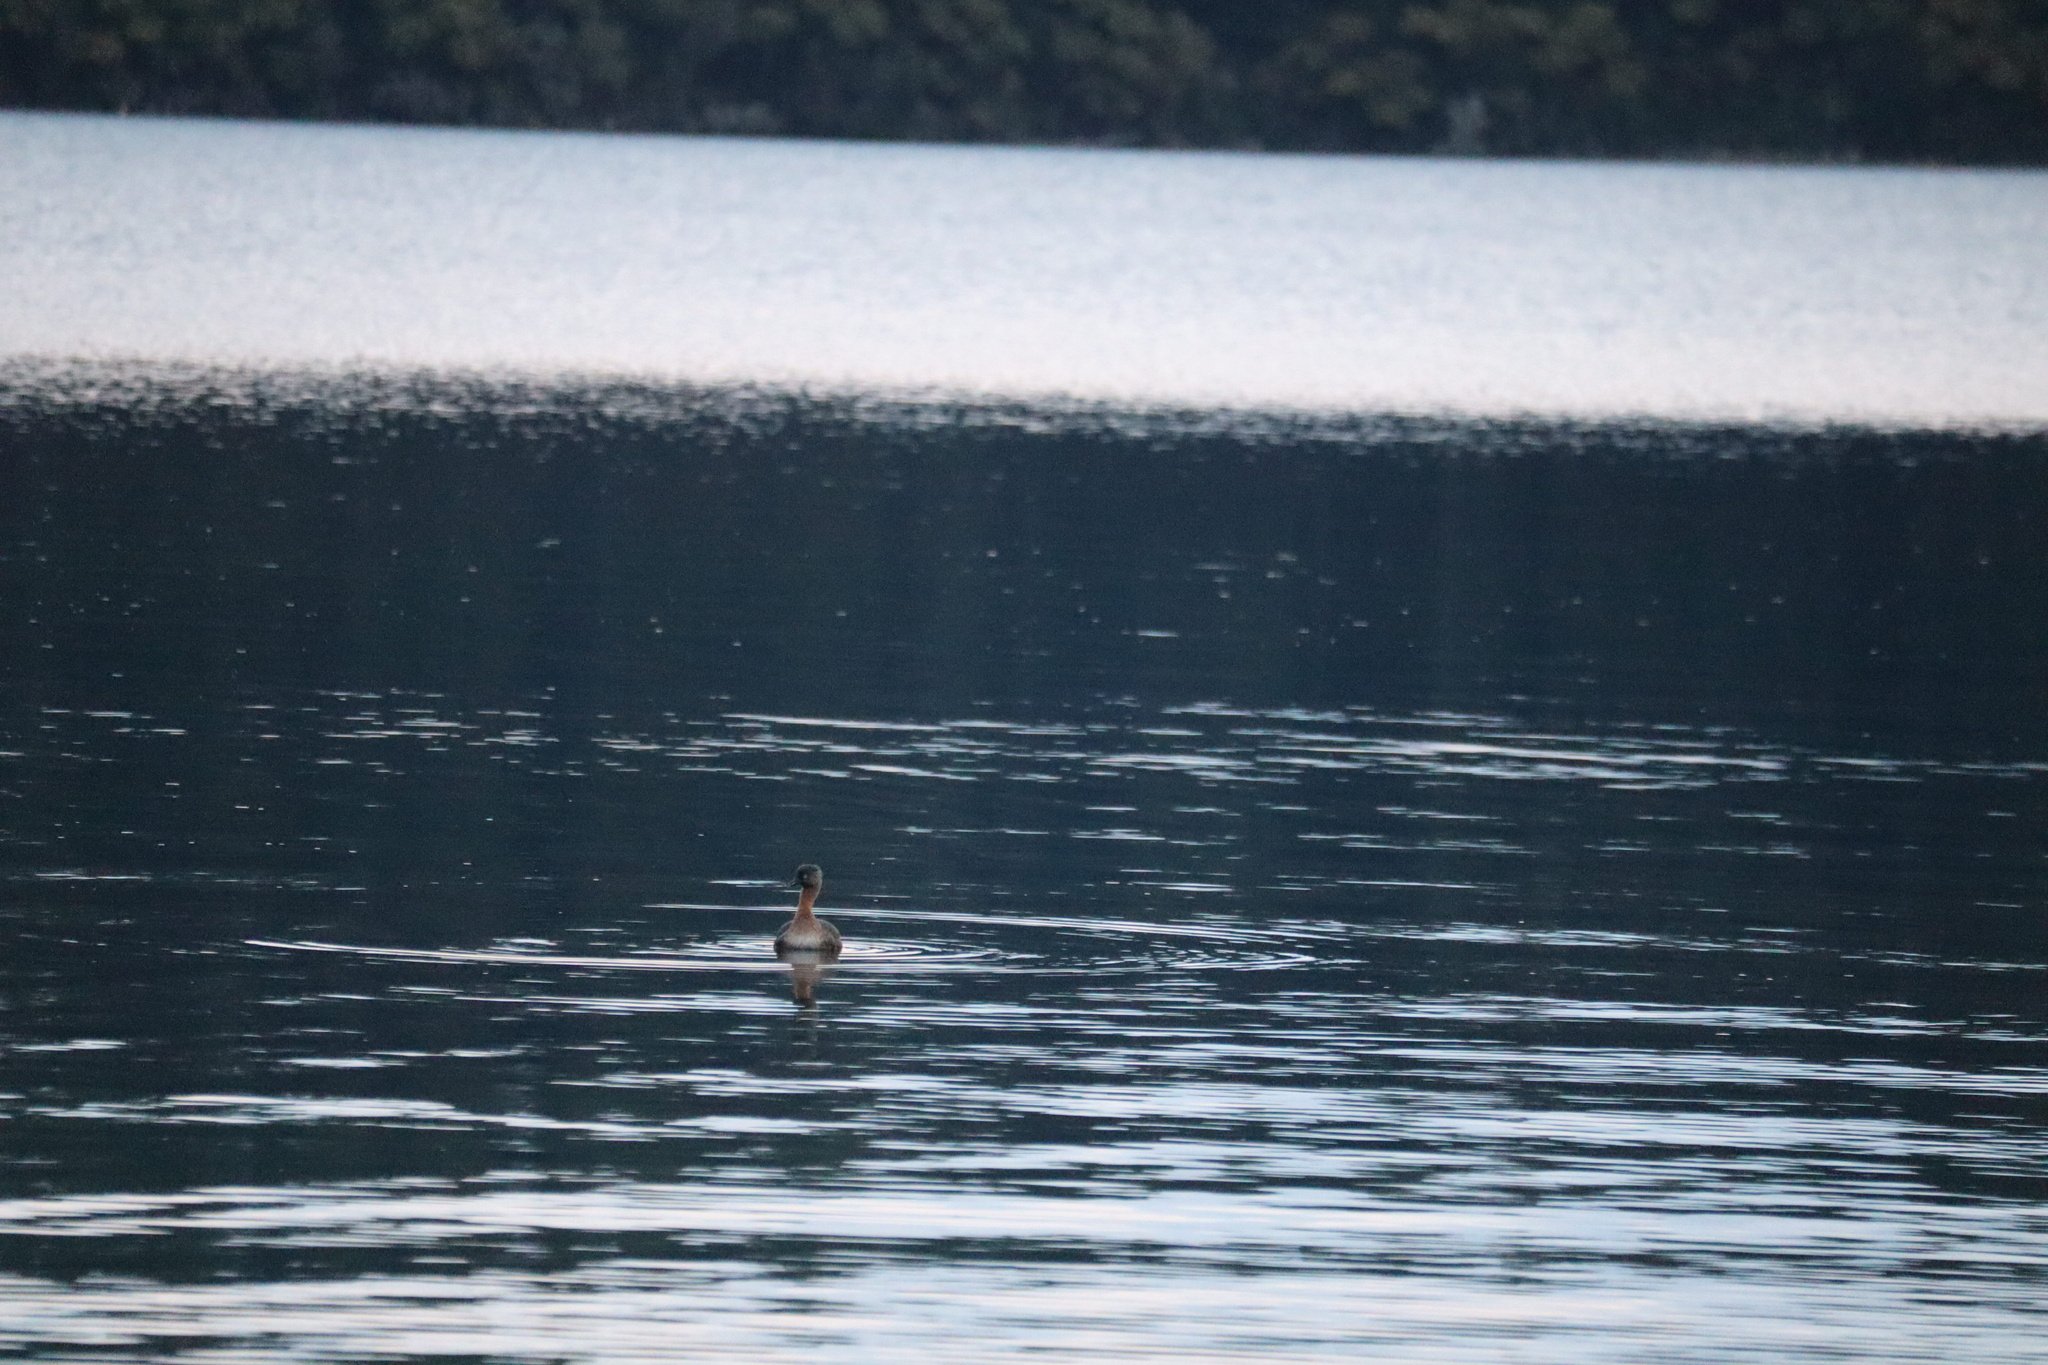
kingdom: Animalia
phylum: Chordata
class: Aves
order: Podicipediformes
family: Podicipedidae
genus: Poliocephalus
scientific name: Poliocephalus rufopectus
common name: New zealand grebe
